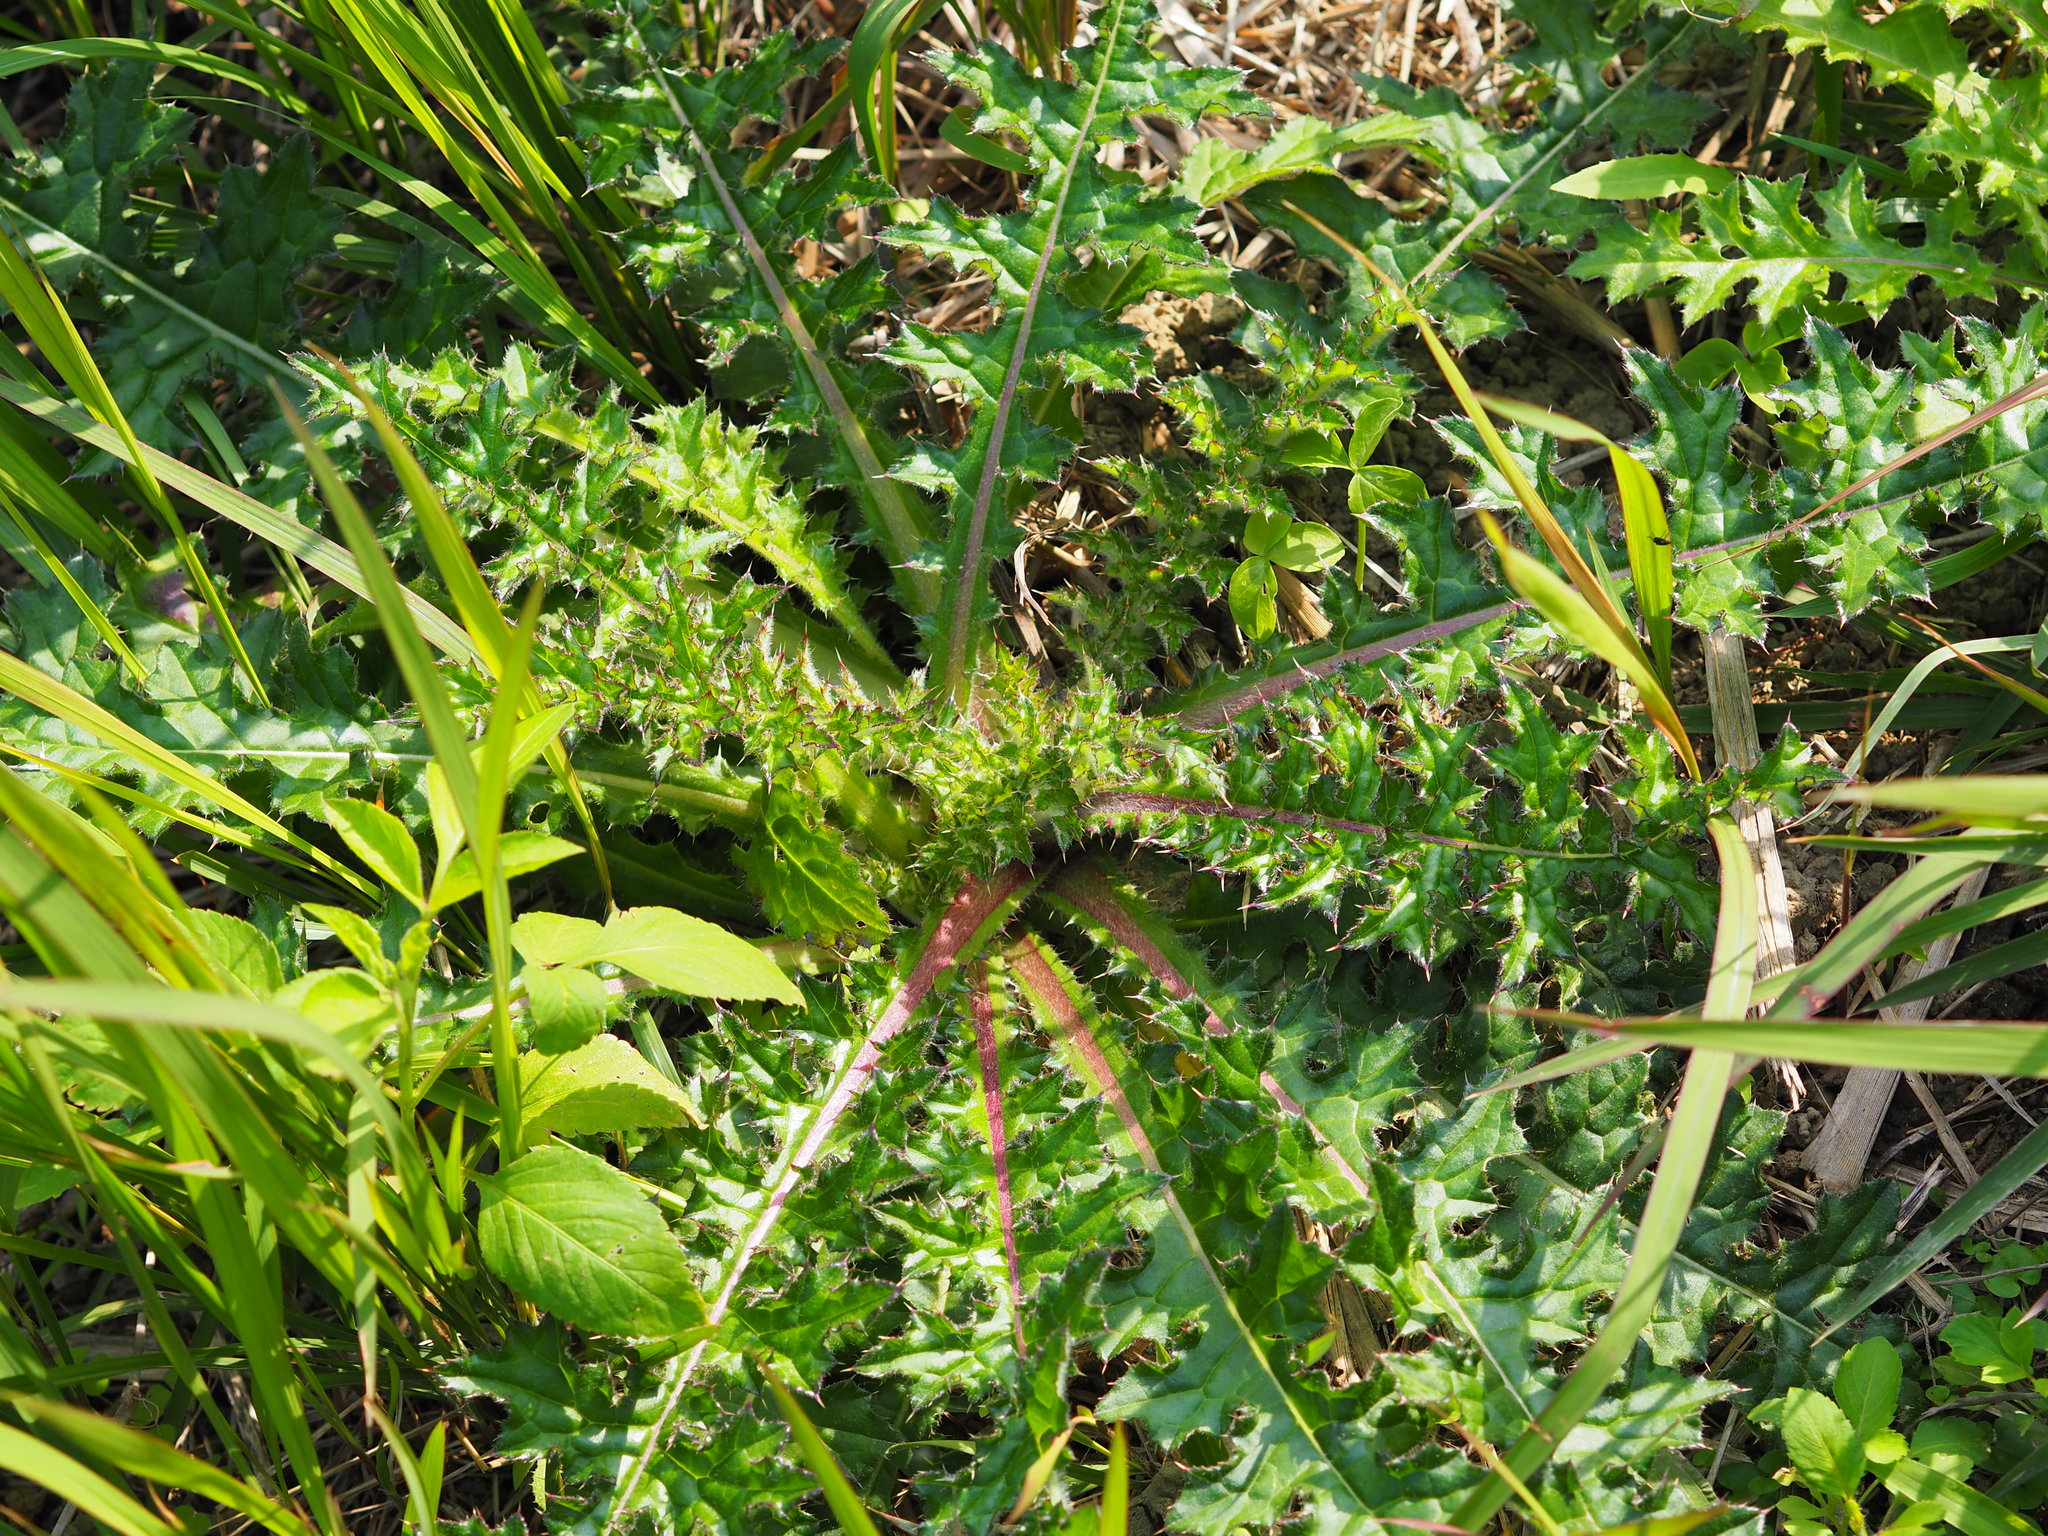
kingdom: Plantae
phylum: Tracheophyta
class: Magnoliopsida
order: Asterales
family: Asteraceae
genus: Cirsium
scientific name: Cirsium japonicum
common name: Japanese thistle
